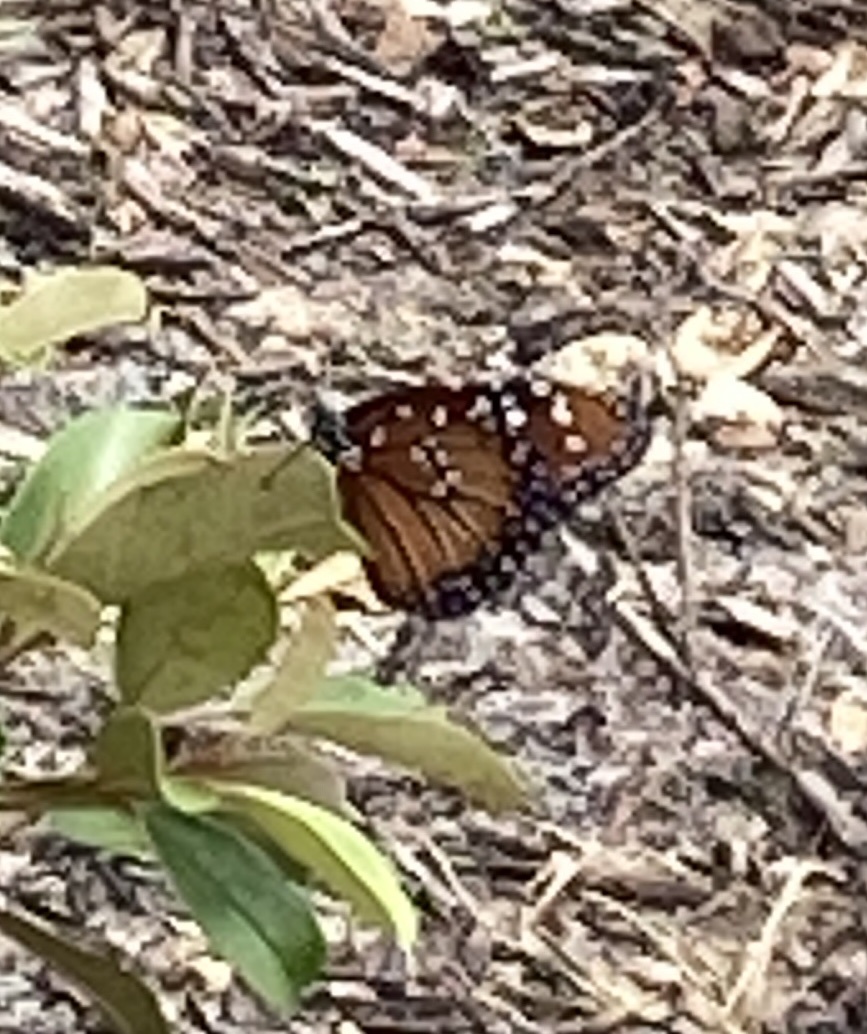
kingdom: Animalia
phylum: Arthropoda
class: Insecta
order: Lepidoptera
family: Nymphalidae
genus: Danaus
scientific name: Danaus gilippus
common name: Queen
